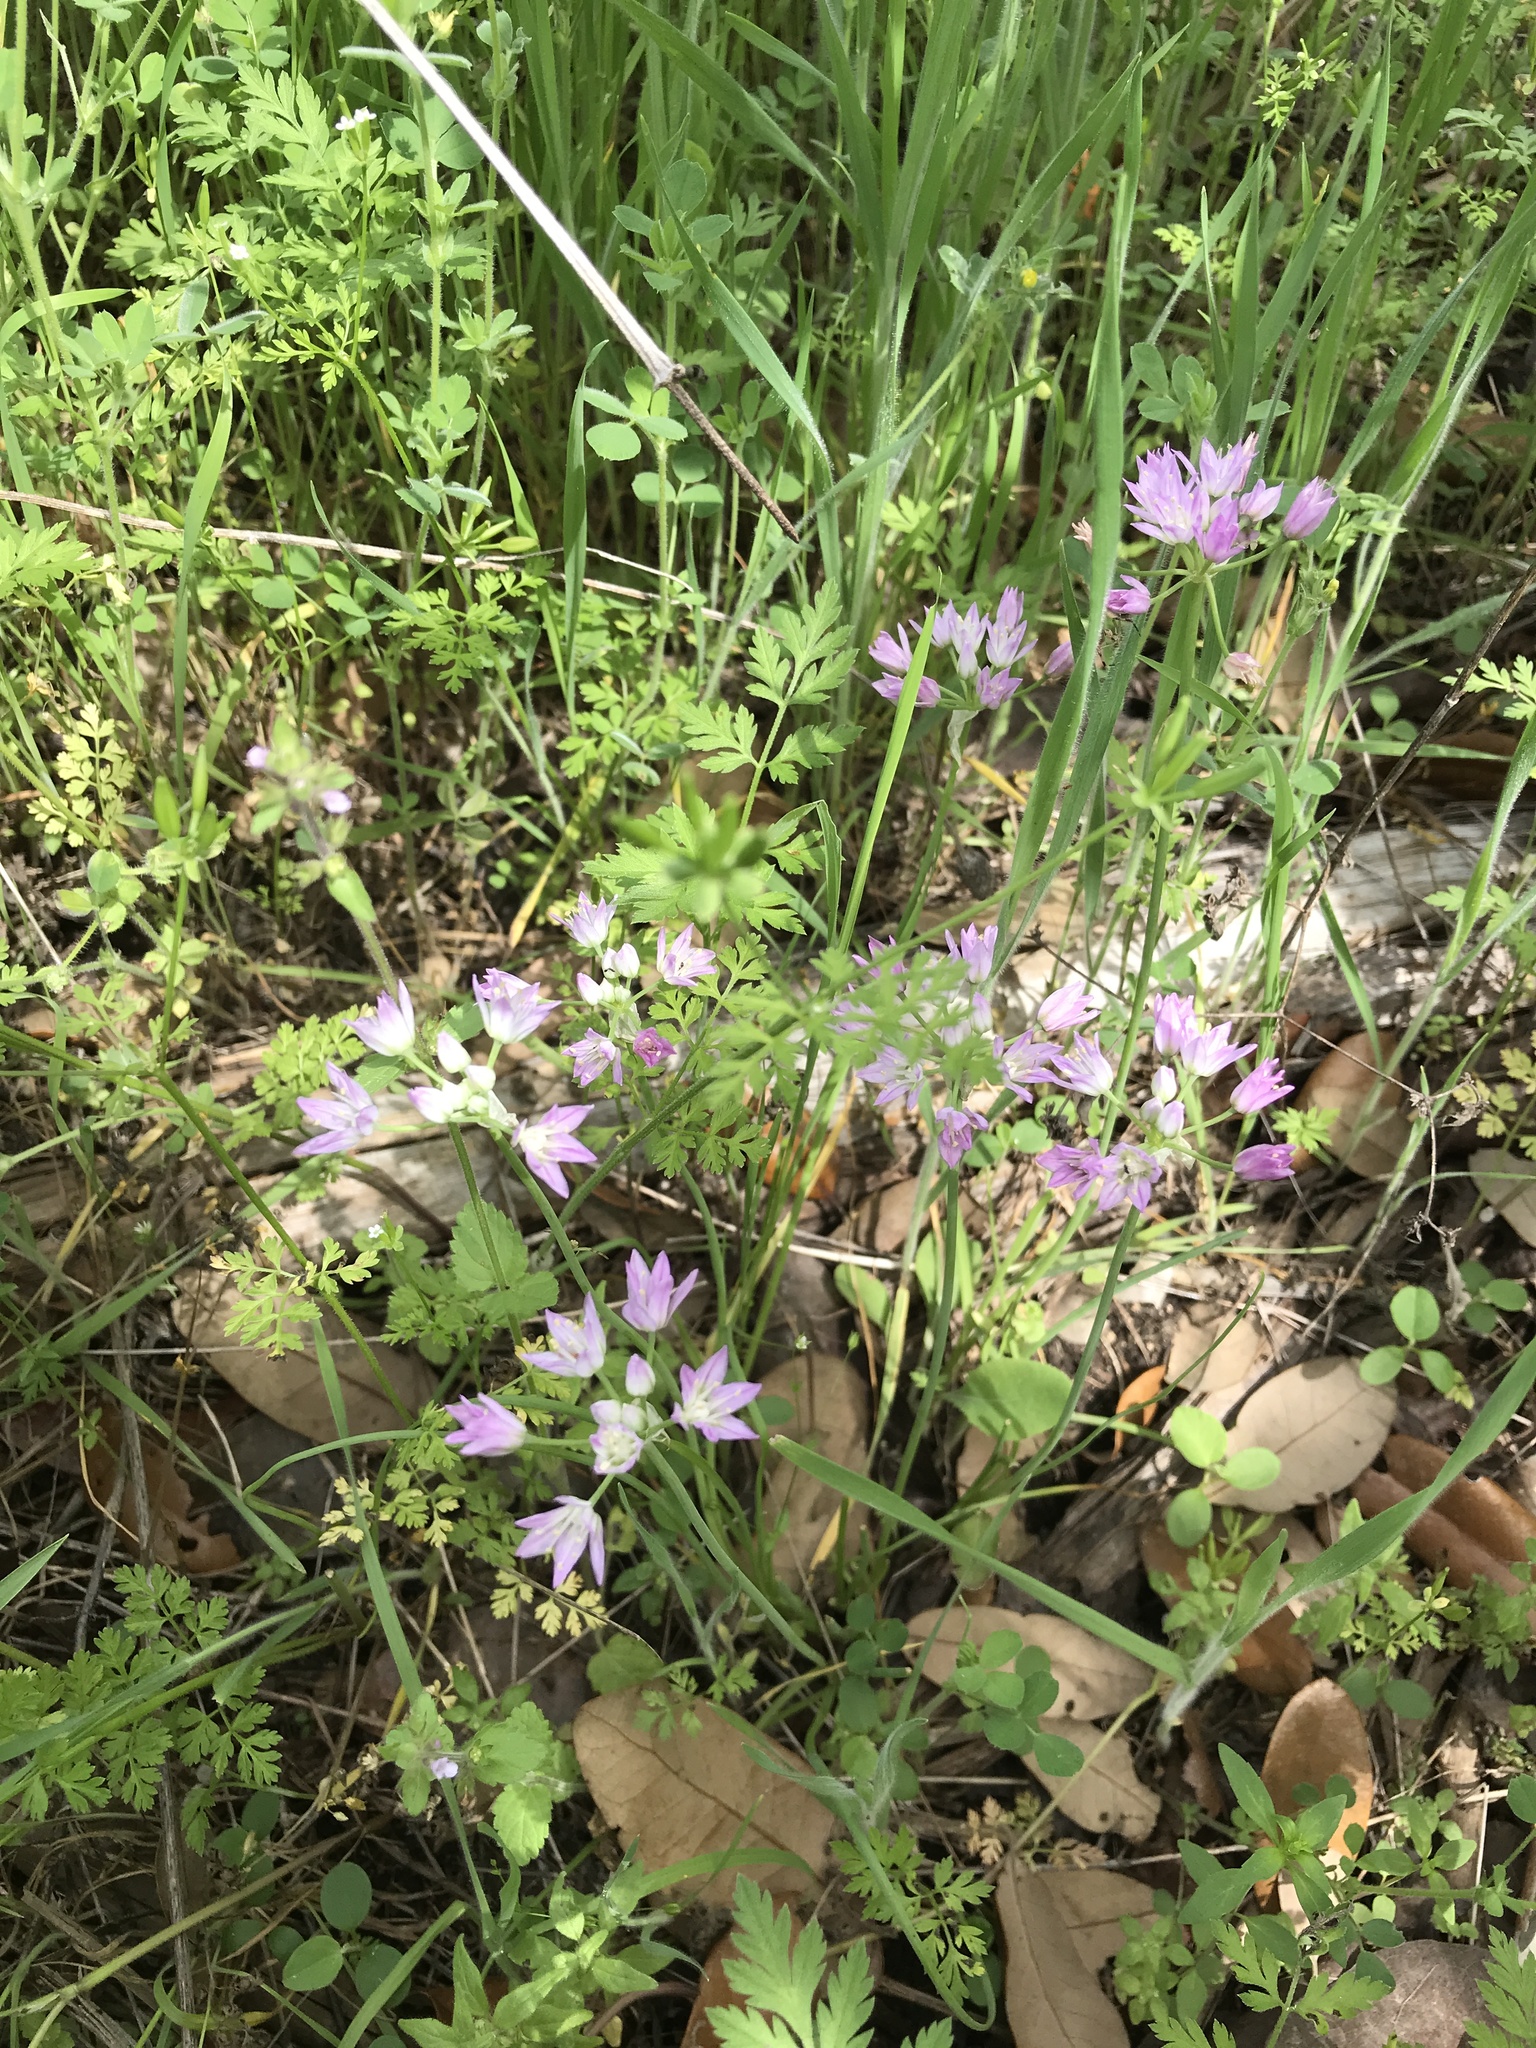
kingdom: Plantae
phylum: Tracheophyta
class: Liliopsida
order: Asparagales
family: Amaryllidaceae
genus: Allium
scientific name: Allium drummondii
